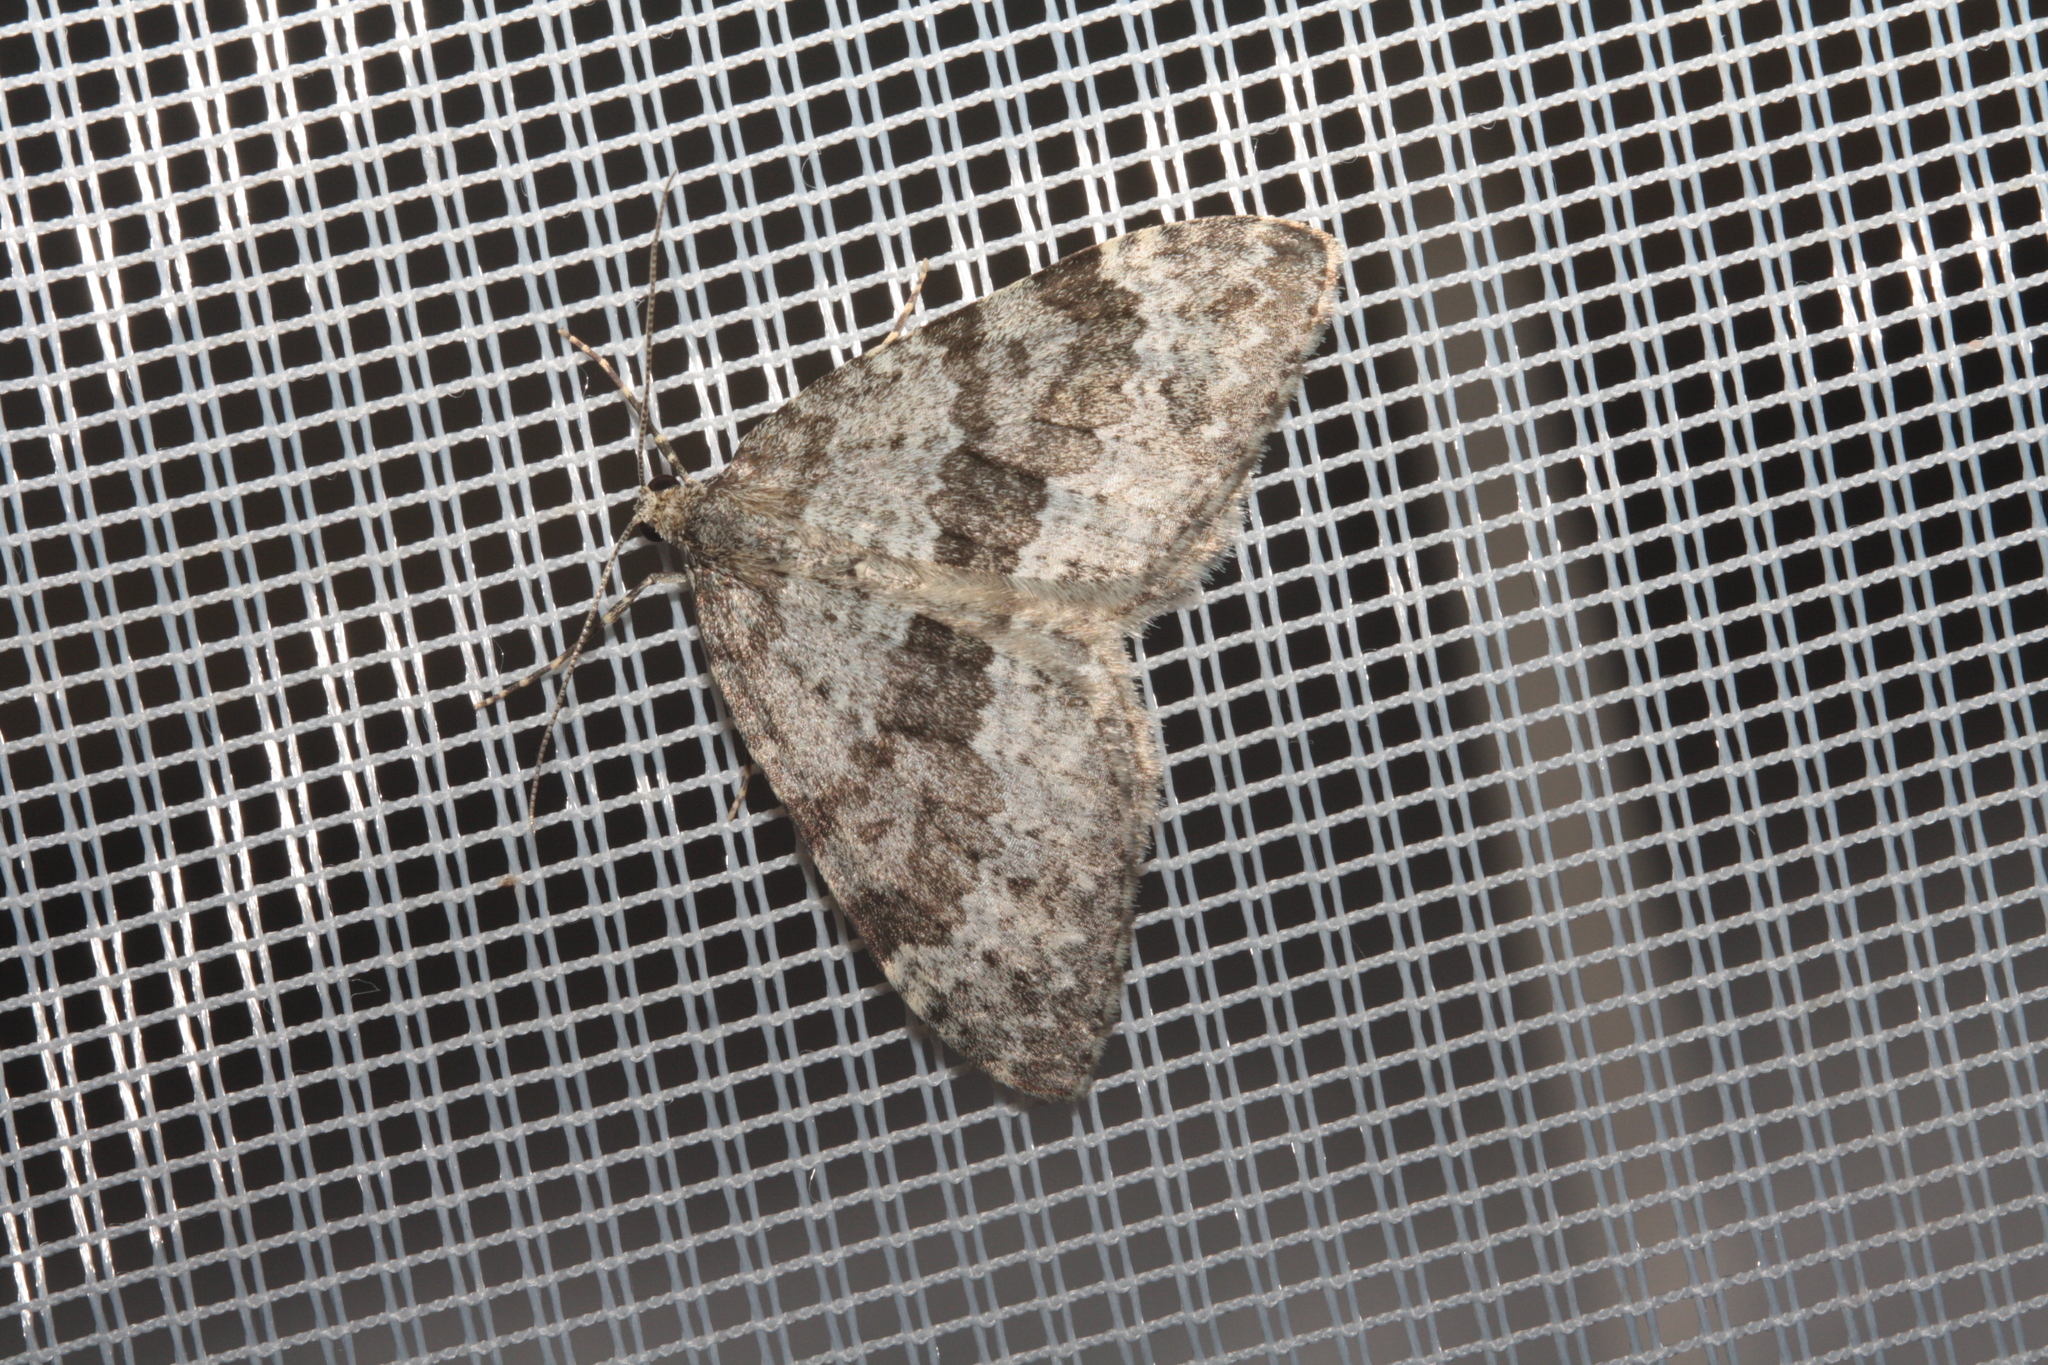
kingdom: Animalia
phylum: Arthropoda
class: Insecta
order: Lepidoptera
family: Geometridae
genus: Entephria
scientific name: Entephria caesiata
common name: Grey mountain moth
